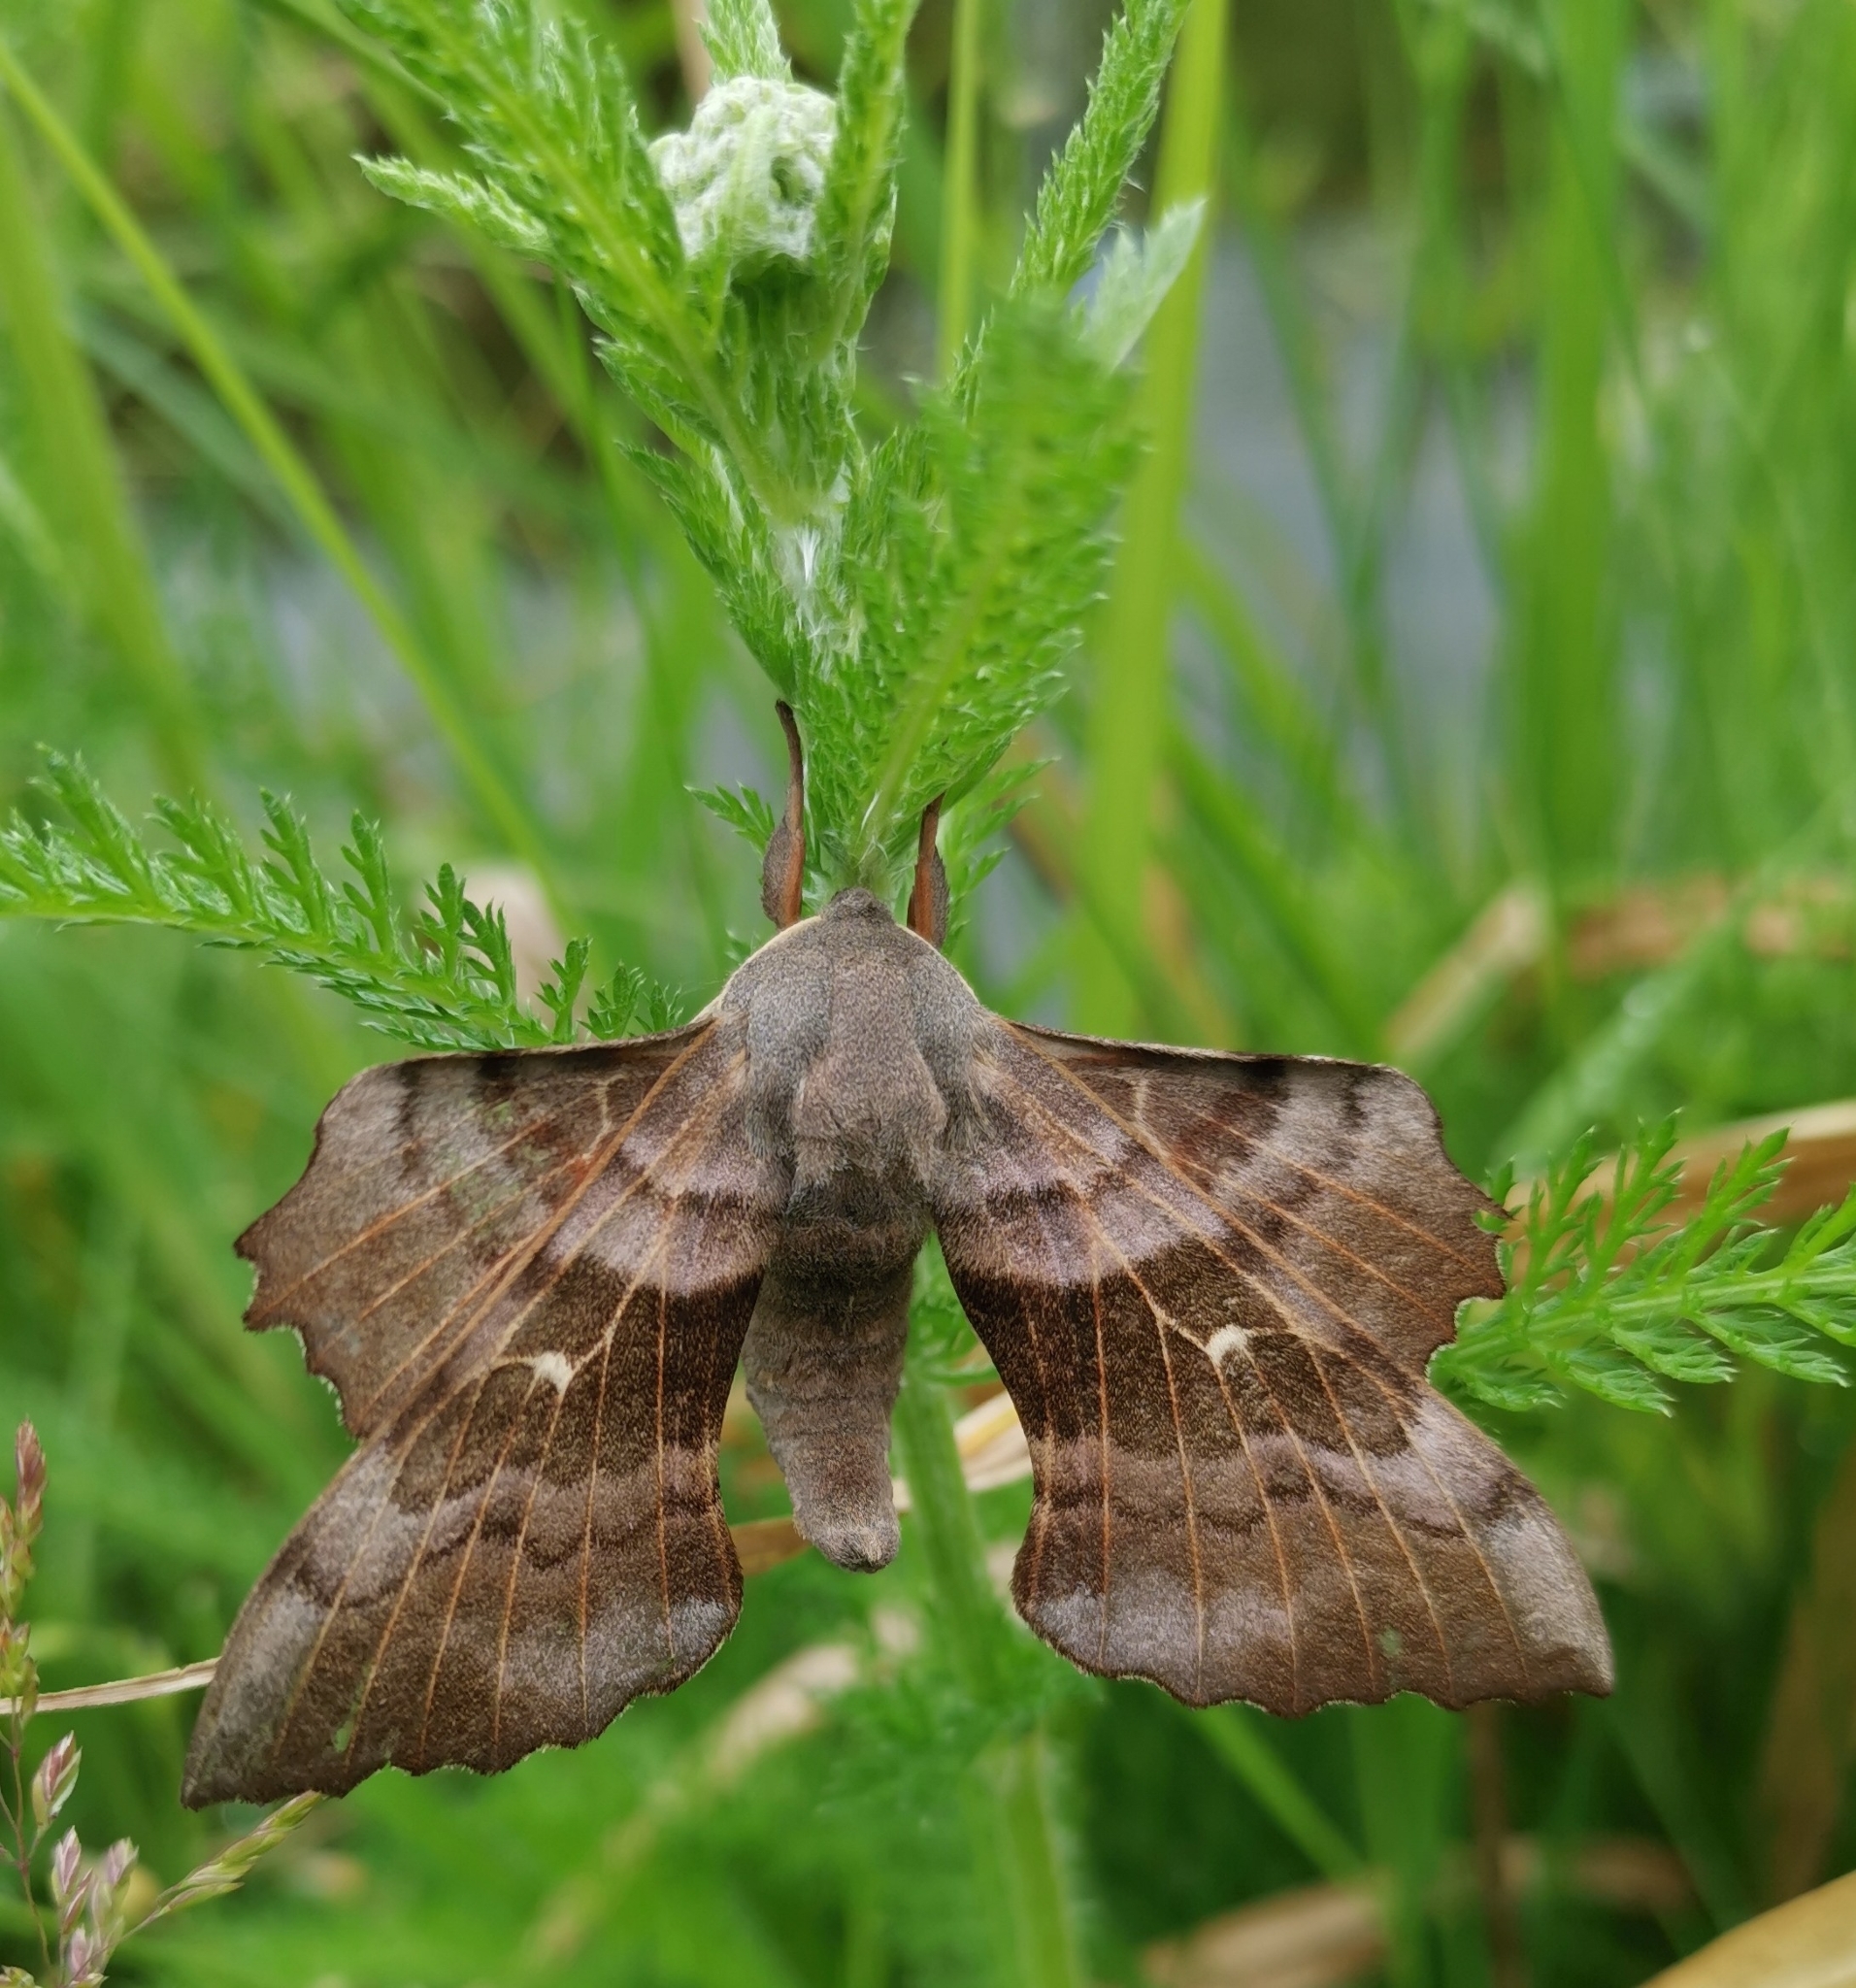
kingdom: Animalia
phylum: Arthropoda
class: Insecta
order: Lepidoptera
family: Sphingidae
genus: Laothoe
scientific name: Laothoe populi
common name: Poplar hawk-moth
